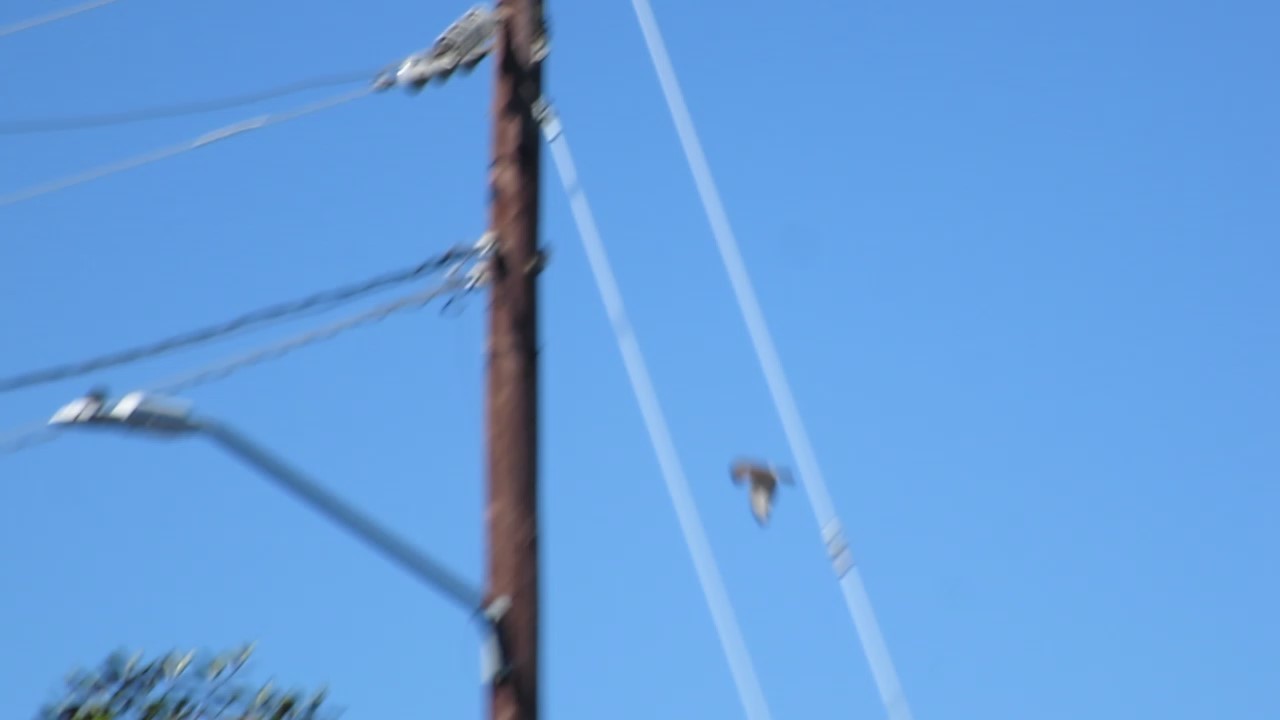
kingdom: Animalia
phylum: Chordata
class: Aves
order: Accipitriformes
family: Accipitridae
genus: Buteo
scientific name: Buteo jamaicensis
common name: Red-tailed hawk
